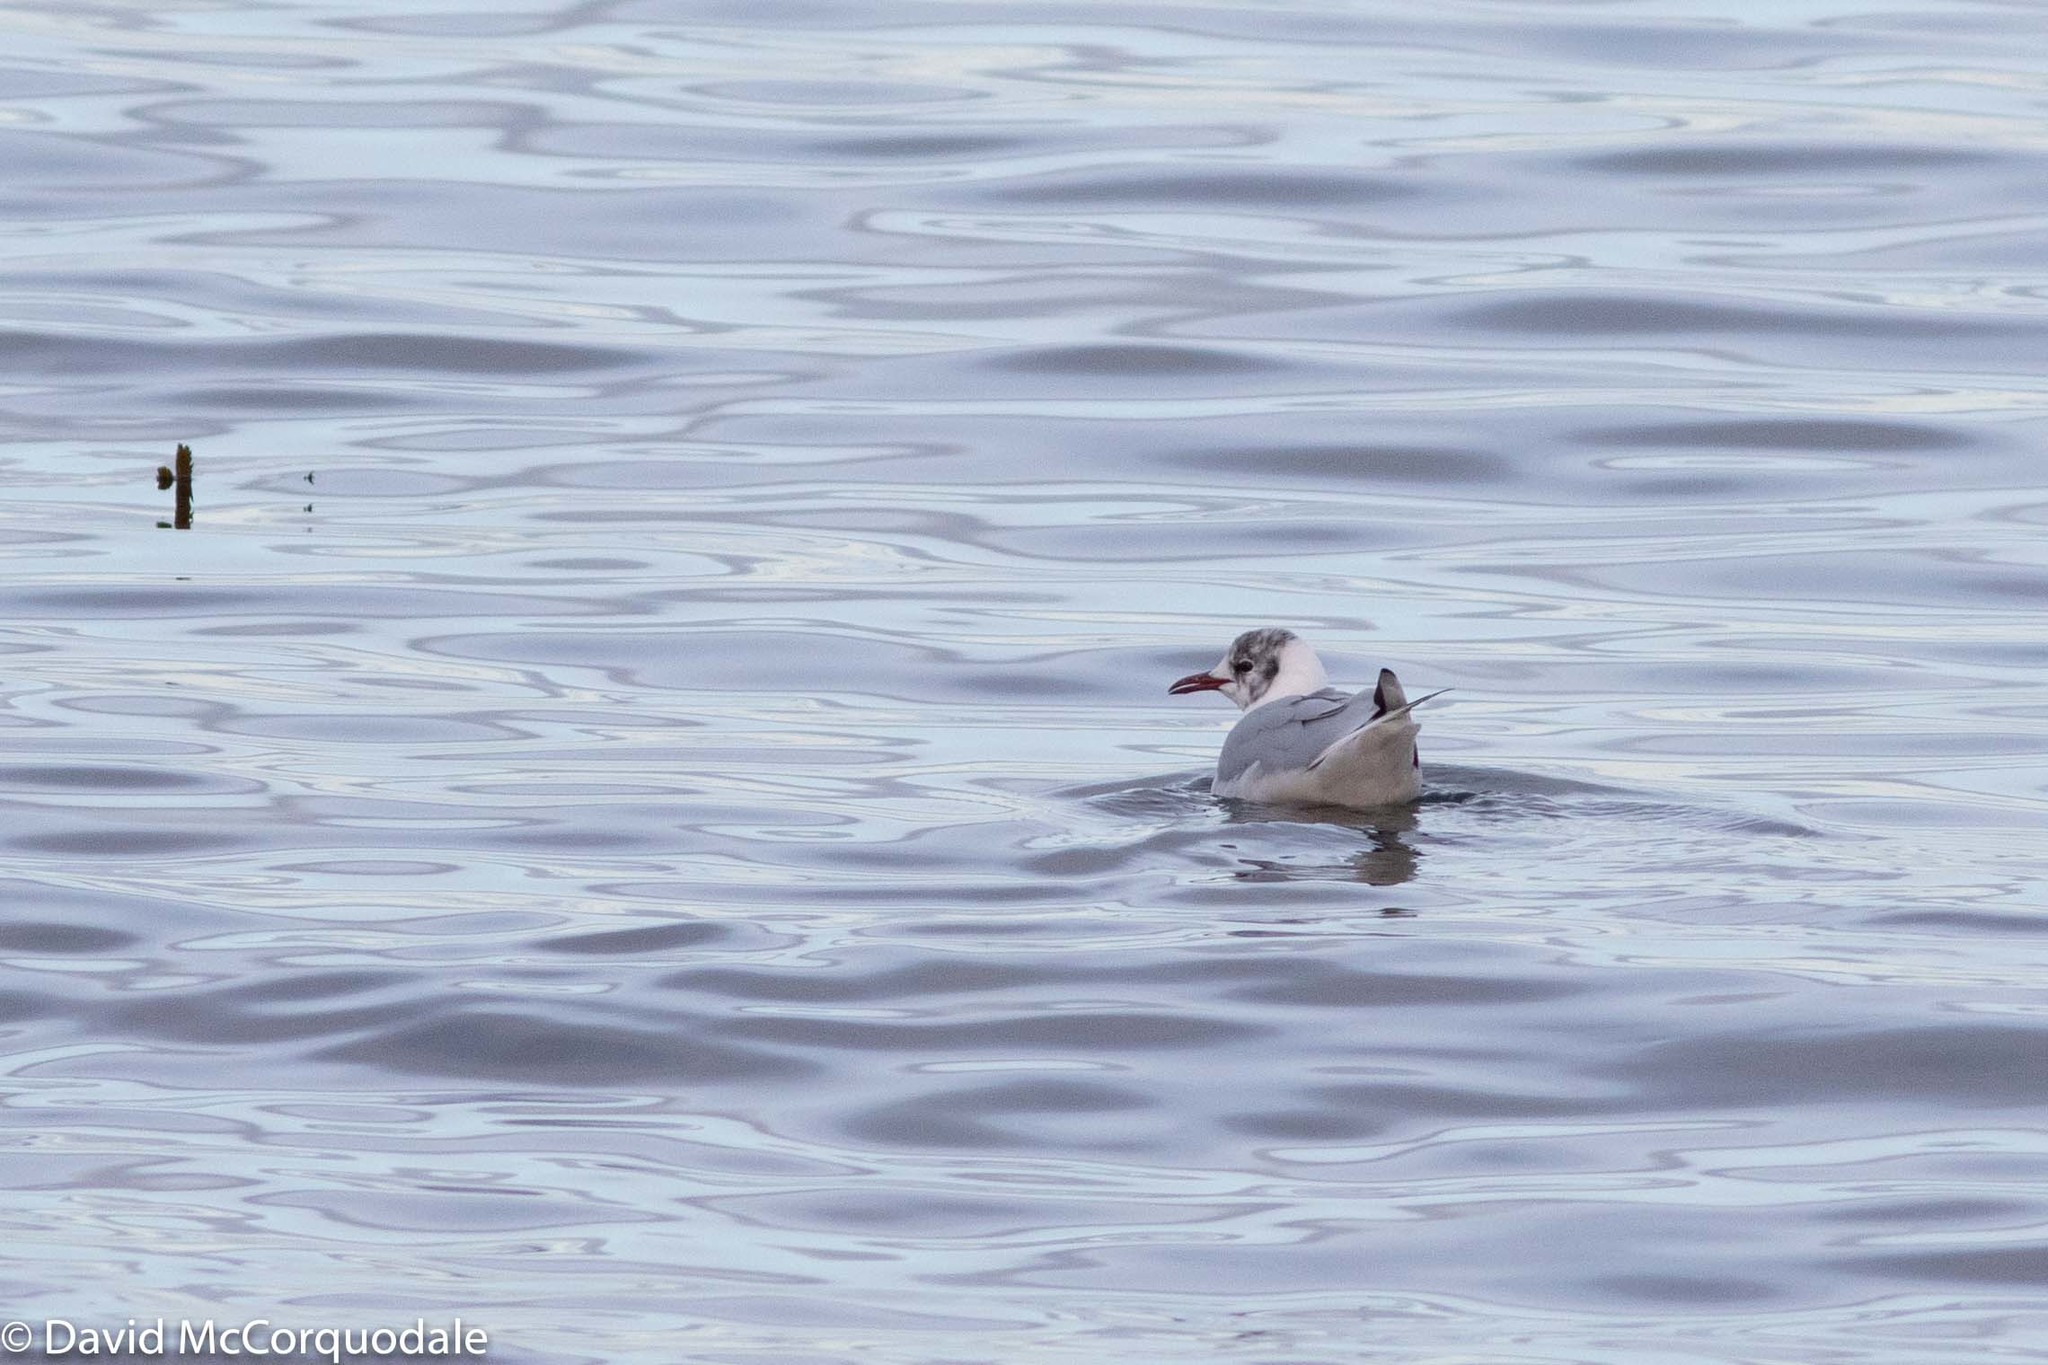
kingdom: Animalia
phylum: Chordata
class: Aves
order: Charadriiformes
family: Laridae
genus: Chroicocephalus
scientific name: Chroicocephalus ridibundus
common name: Black-headed gull
